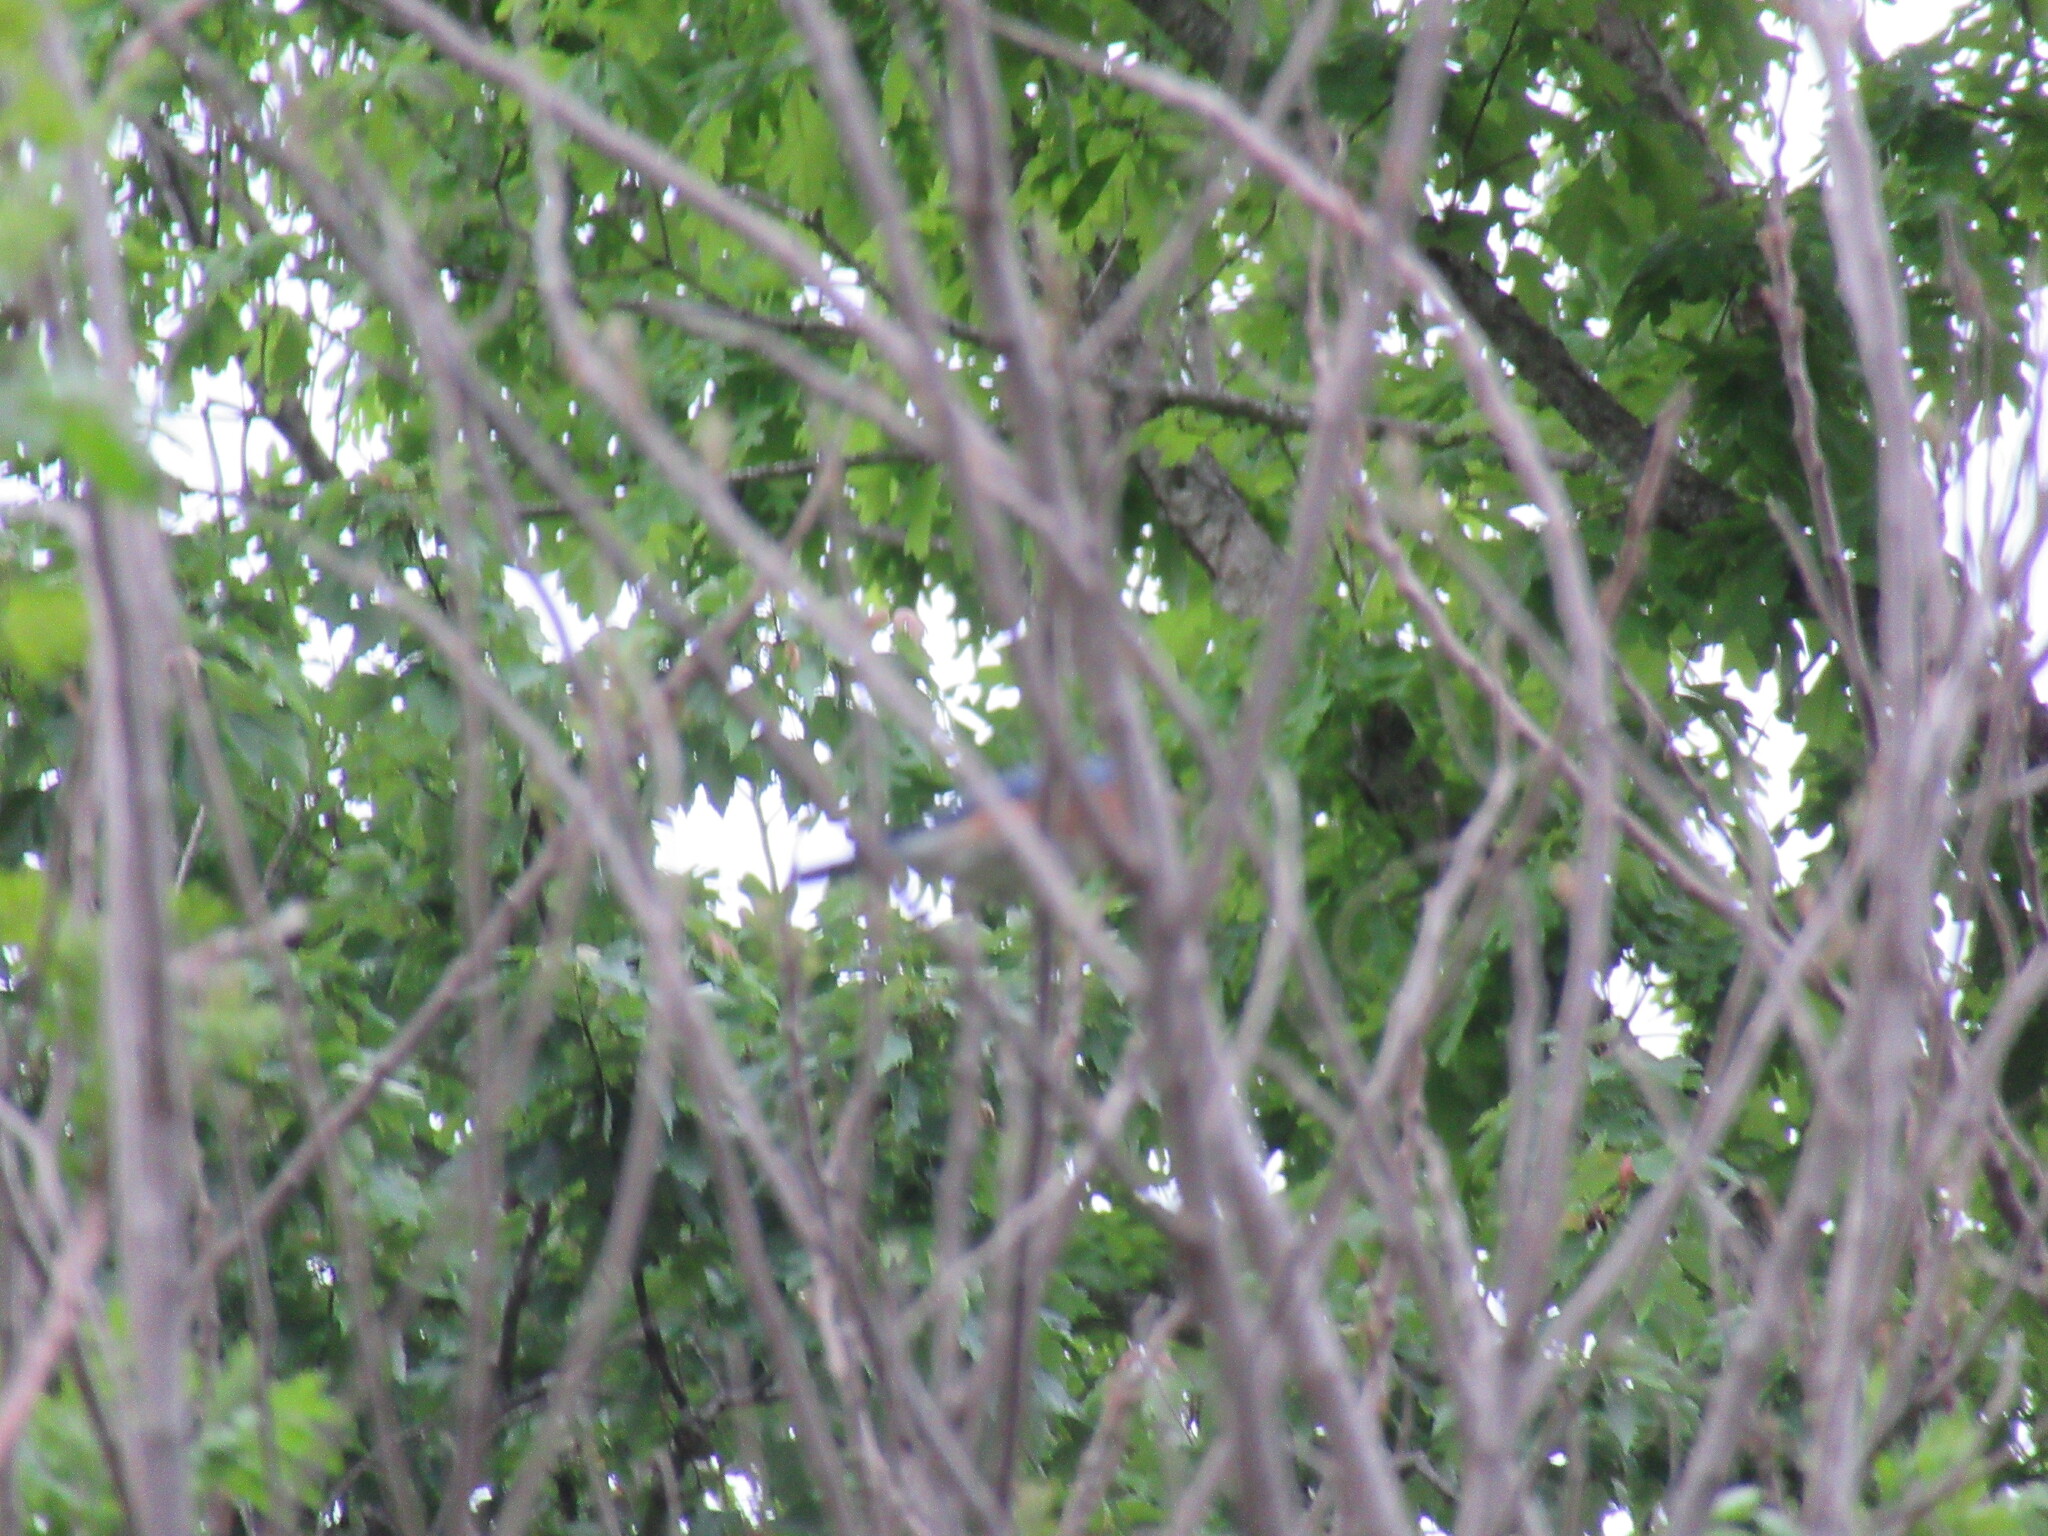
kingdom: Animalia
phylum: Chordata
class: Aves
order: Passeriformes
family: Turdidae
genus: Sialia
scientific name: Sialia sialis
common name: Eastern bluebird
